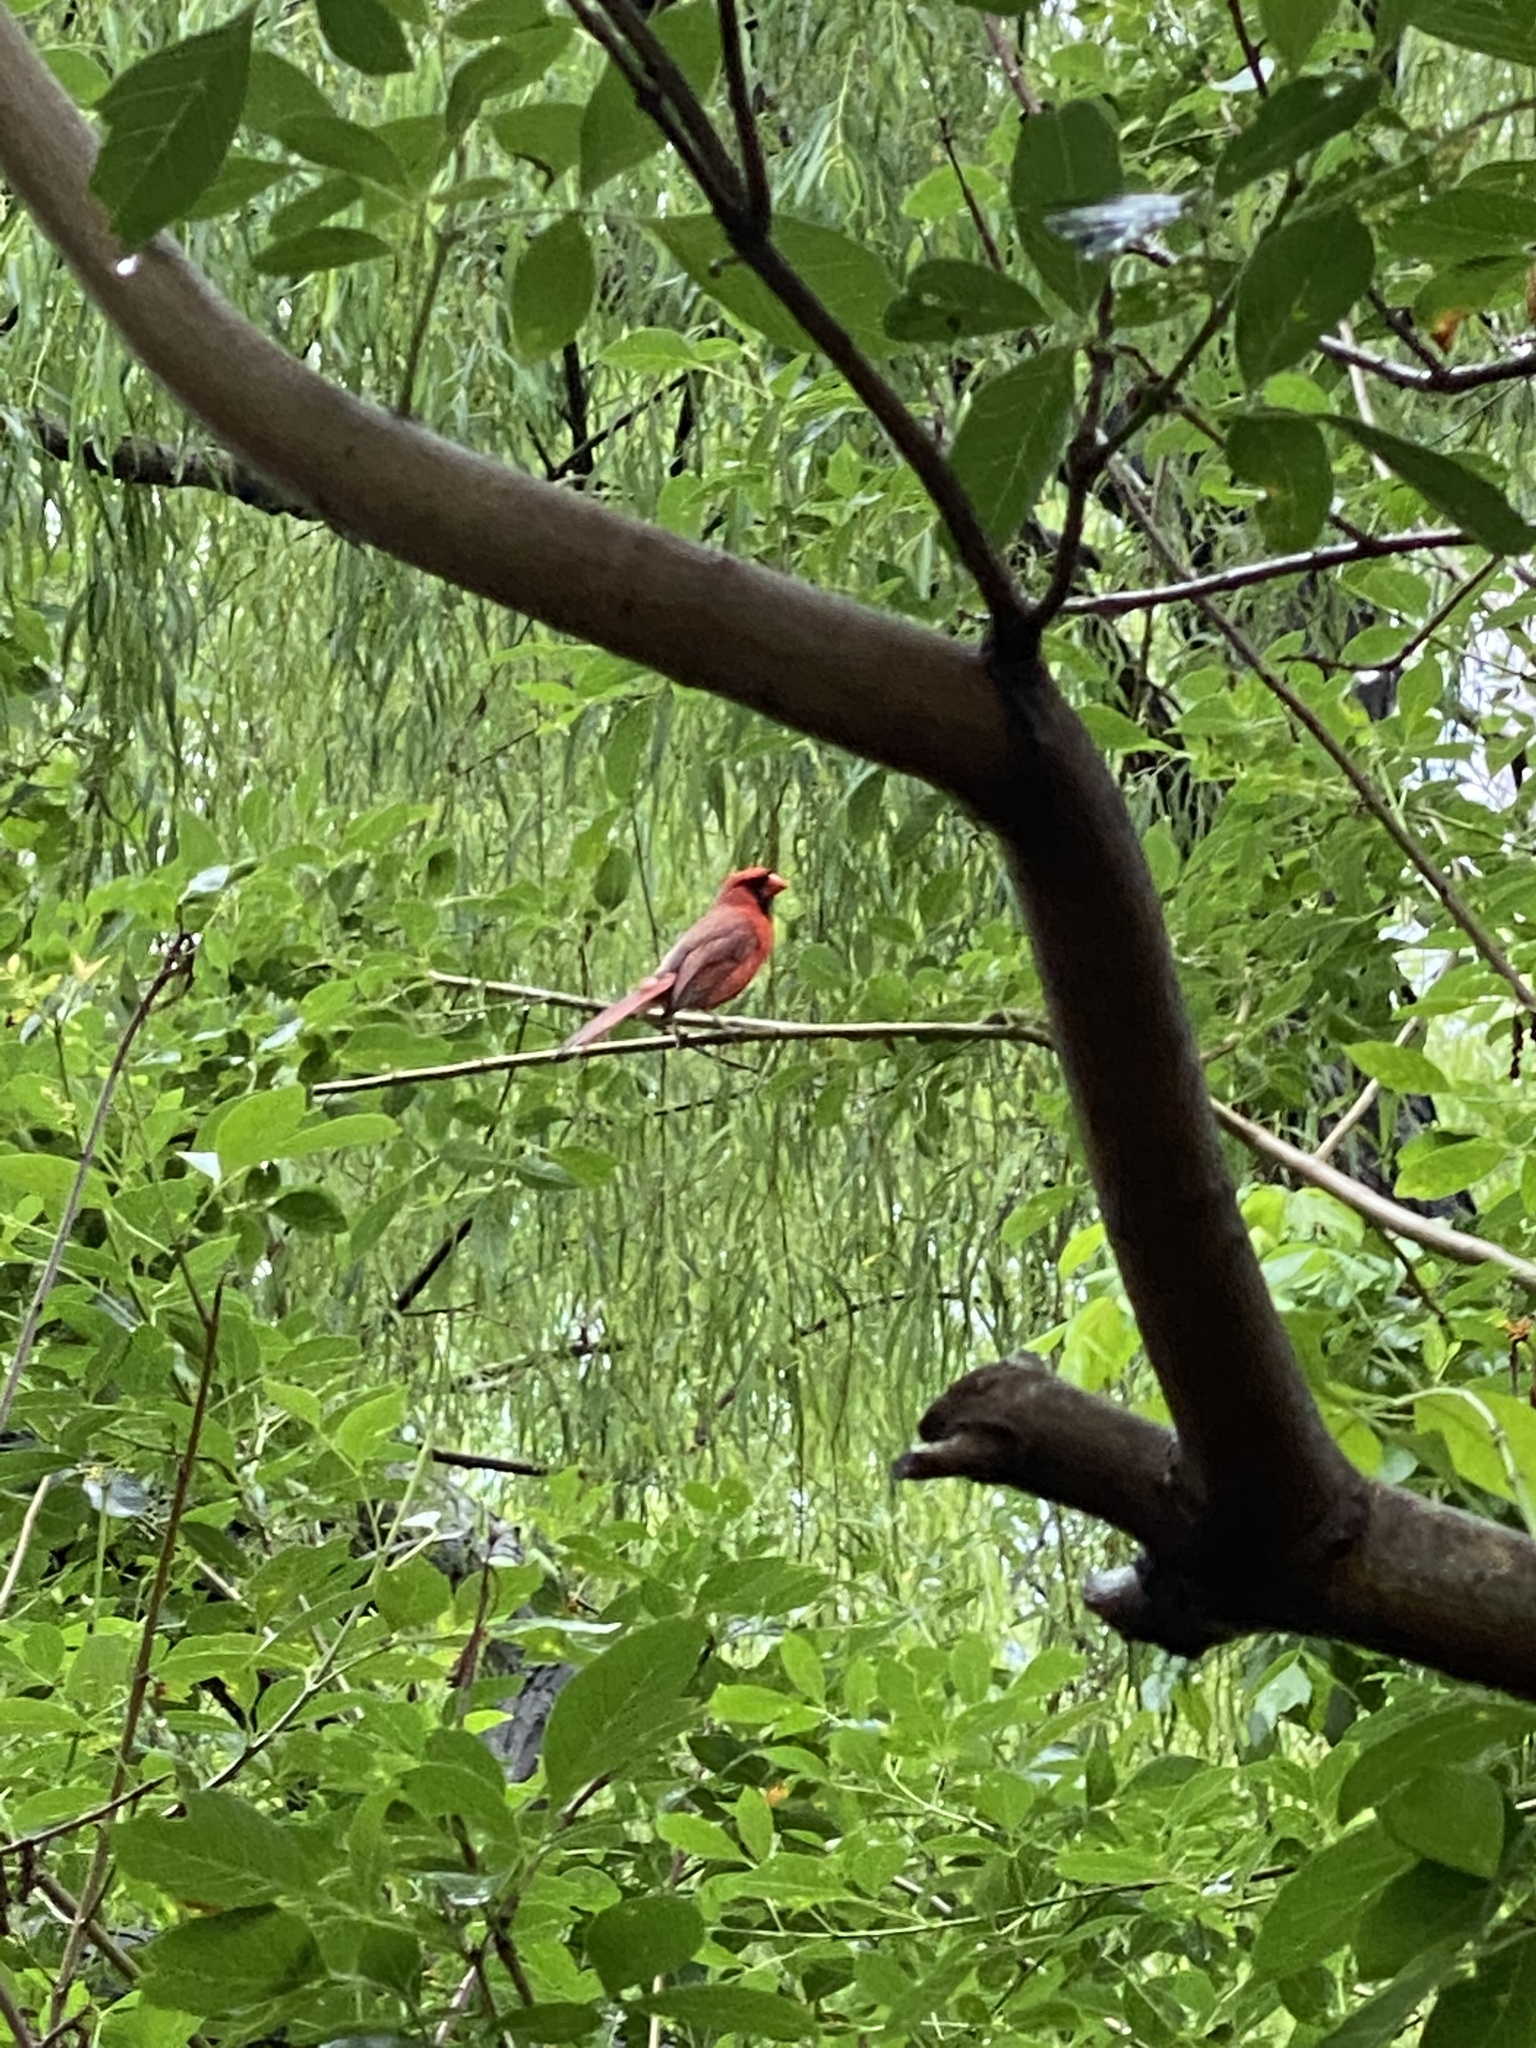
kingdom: Animalia
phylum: Chordata
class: Aves
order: Passeriformes
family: Cardinalidae
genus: Cardinalis
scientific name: Cardinalis cardinalis
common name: Northern cardinal
